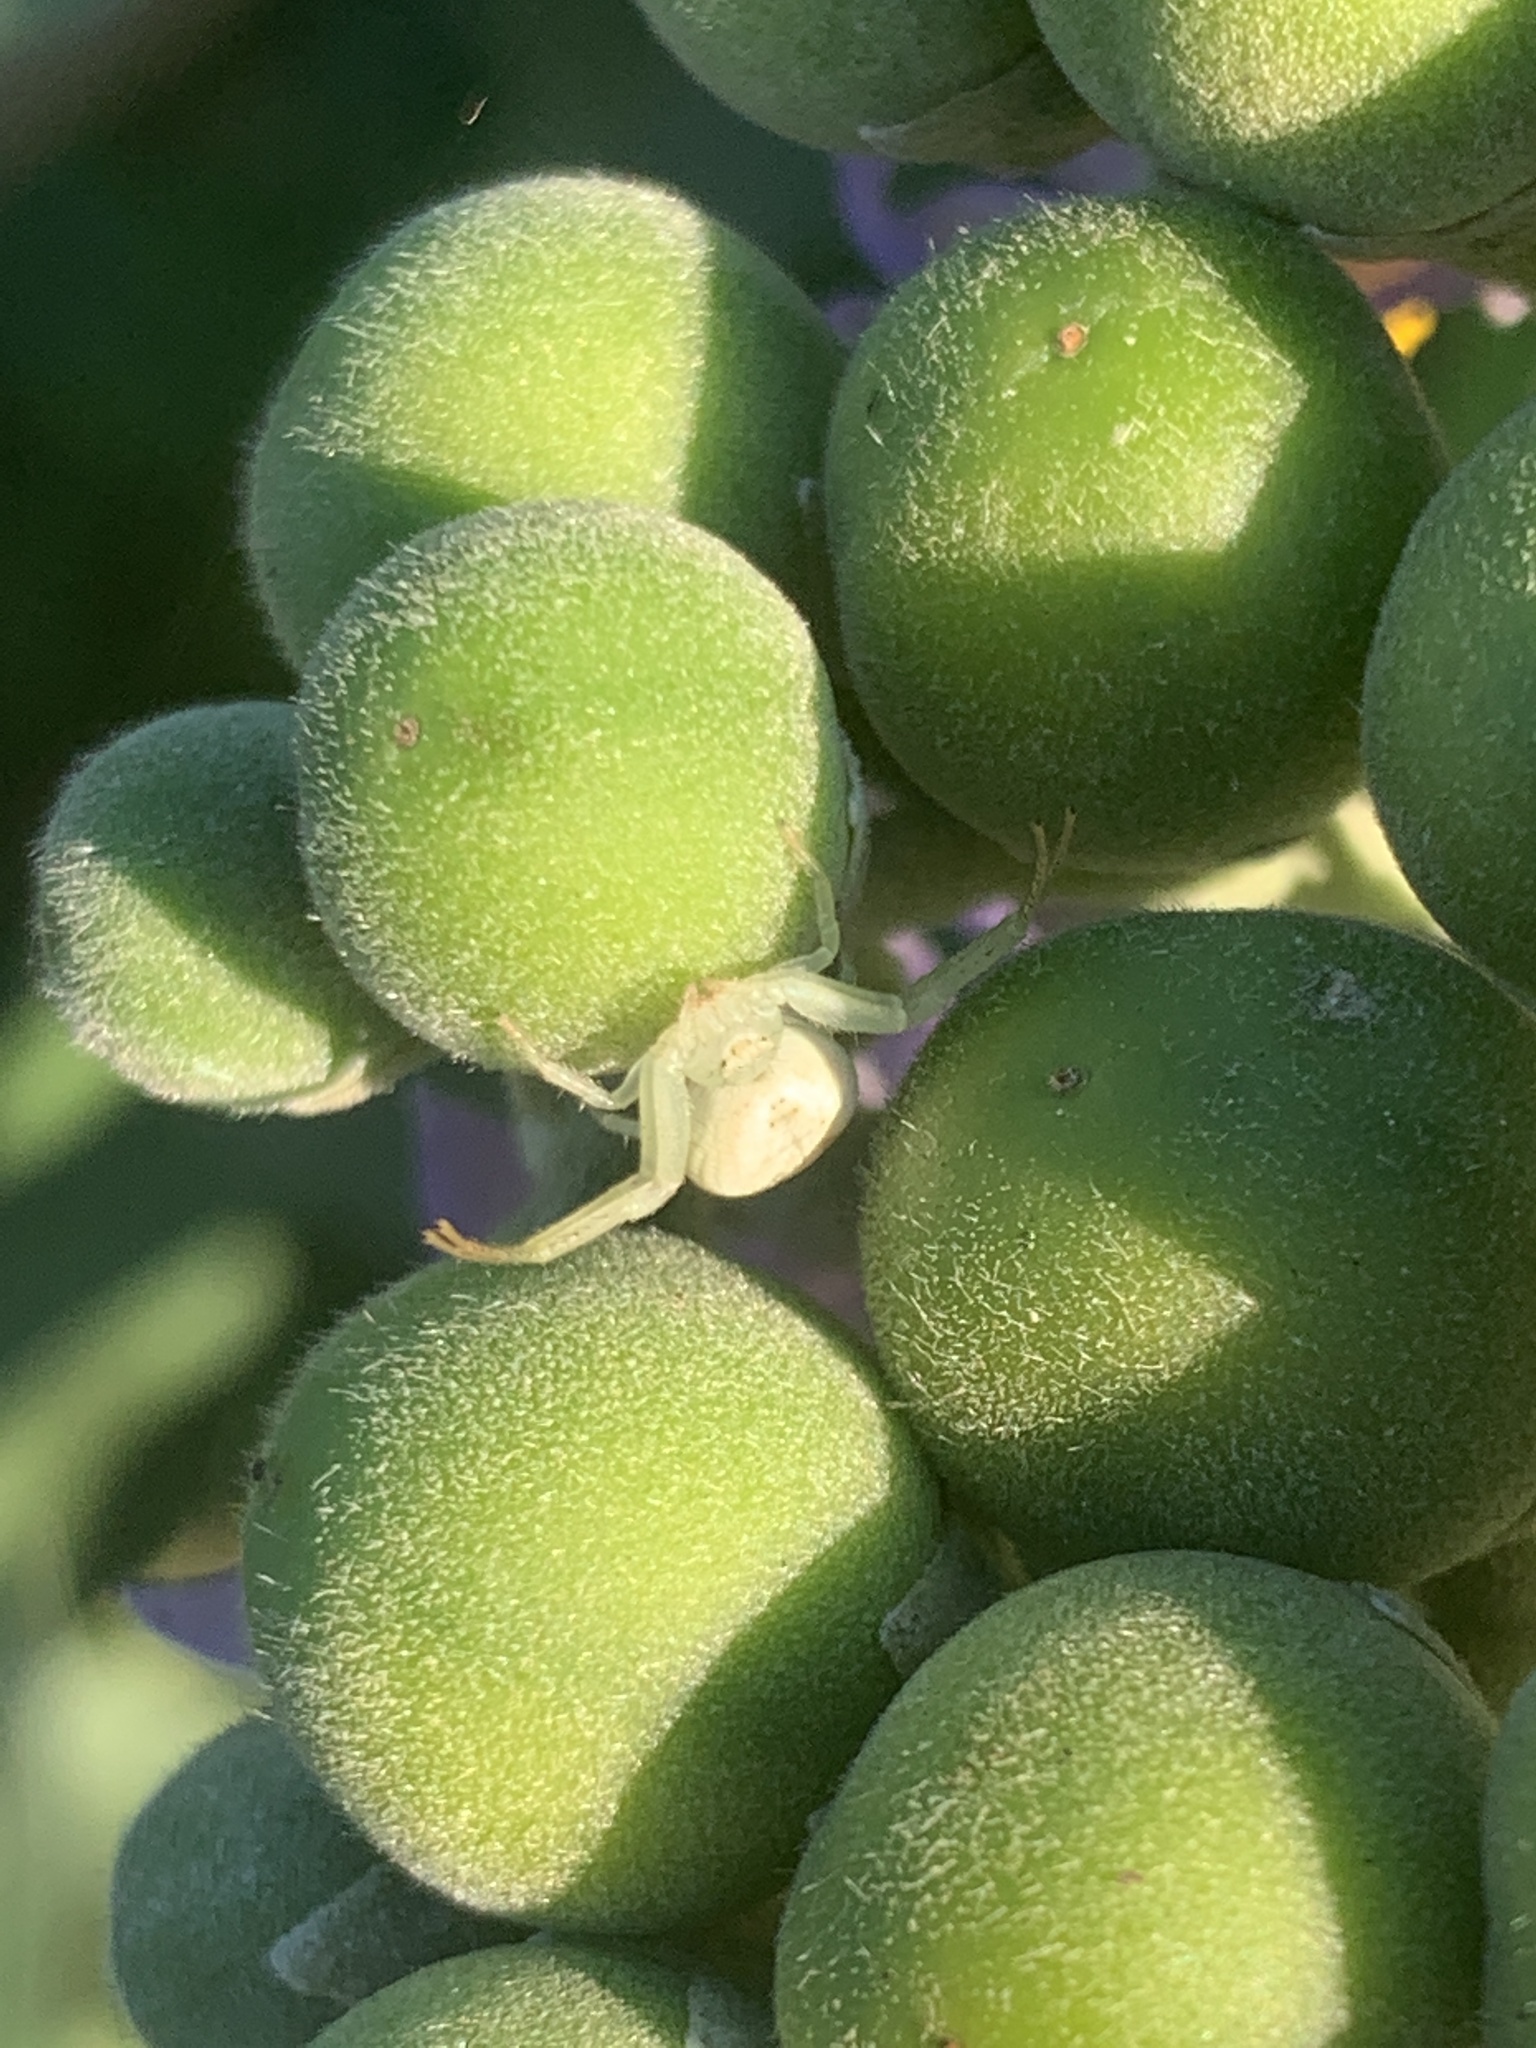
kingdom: Animalia
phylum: Arthropoda
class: Arachnida
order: Araneae
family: Thomisidae
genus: Misumenops
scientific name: Misumenops
